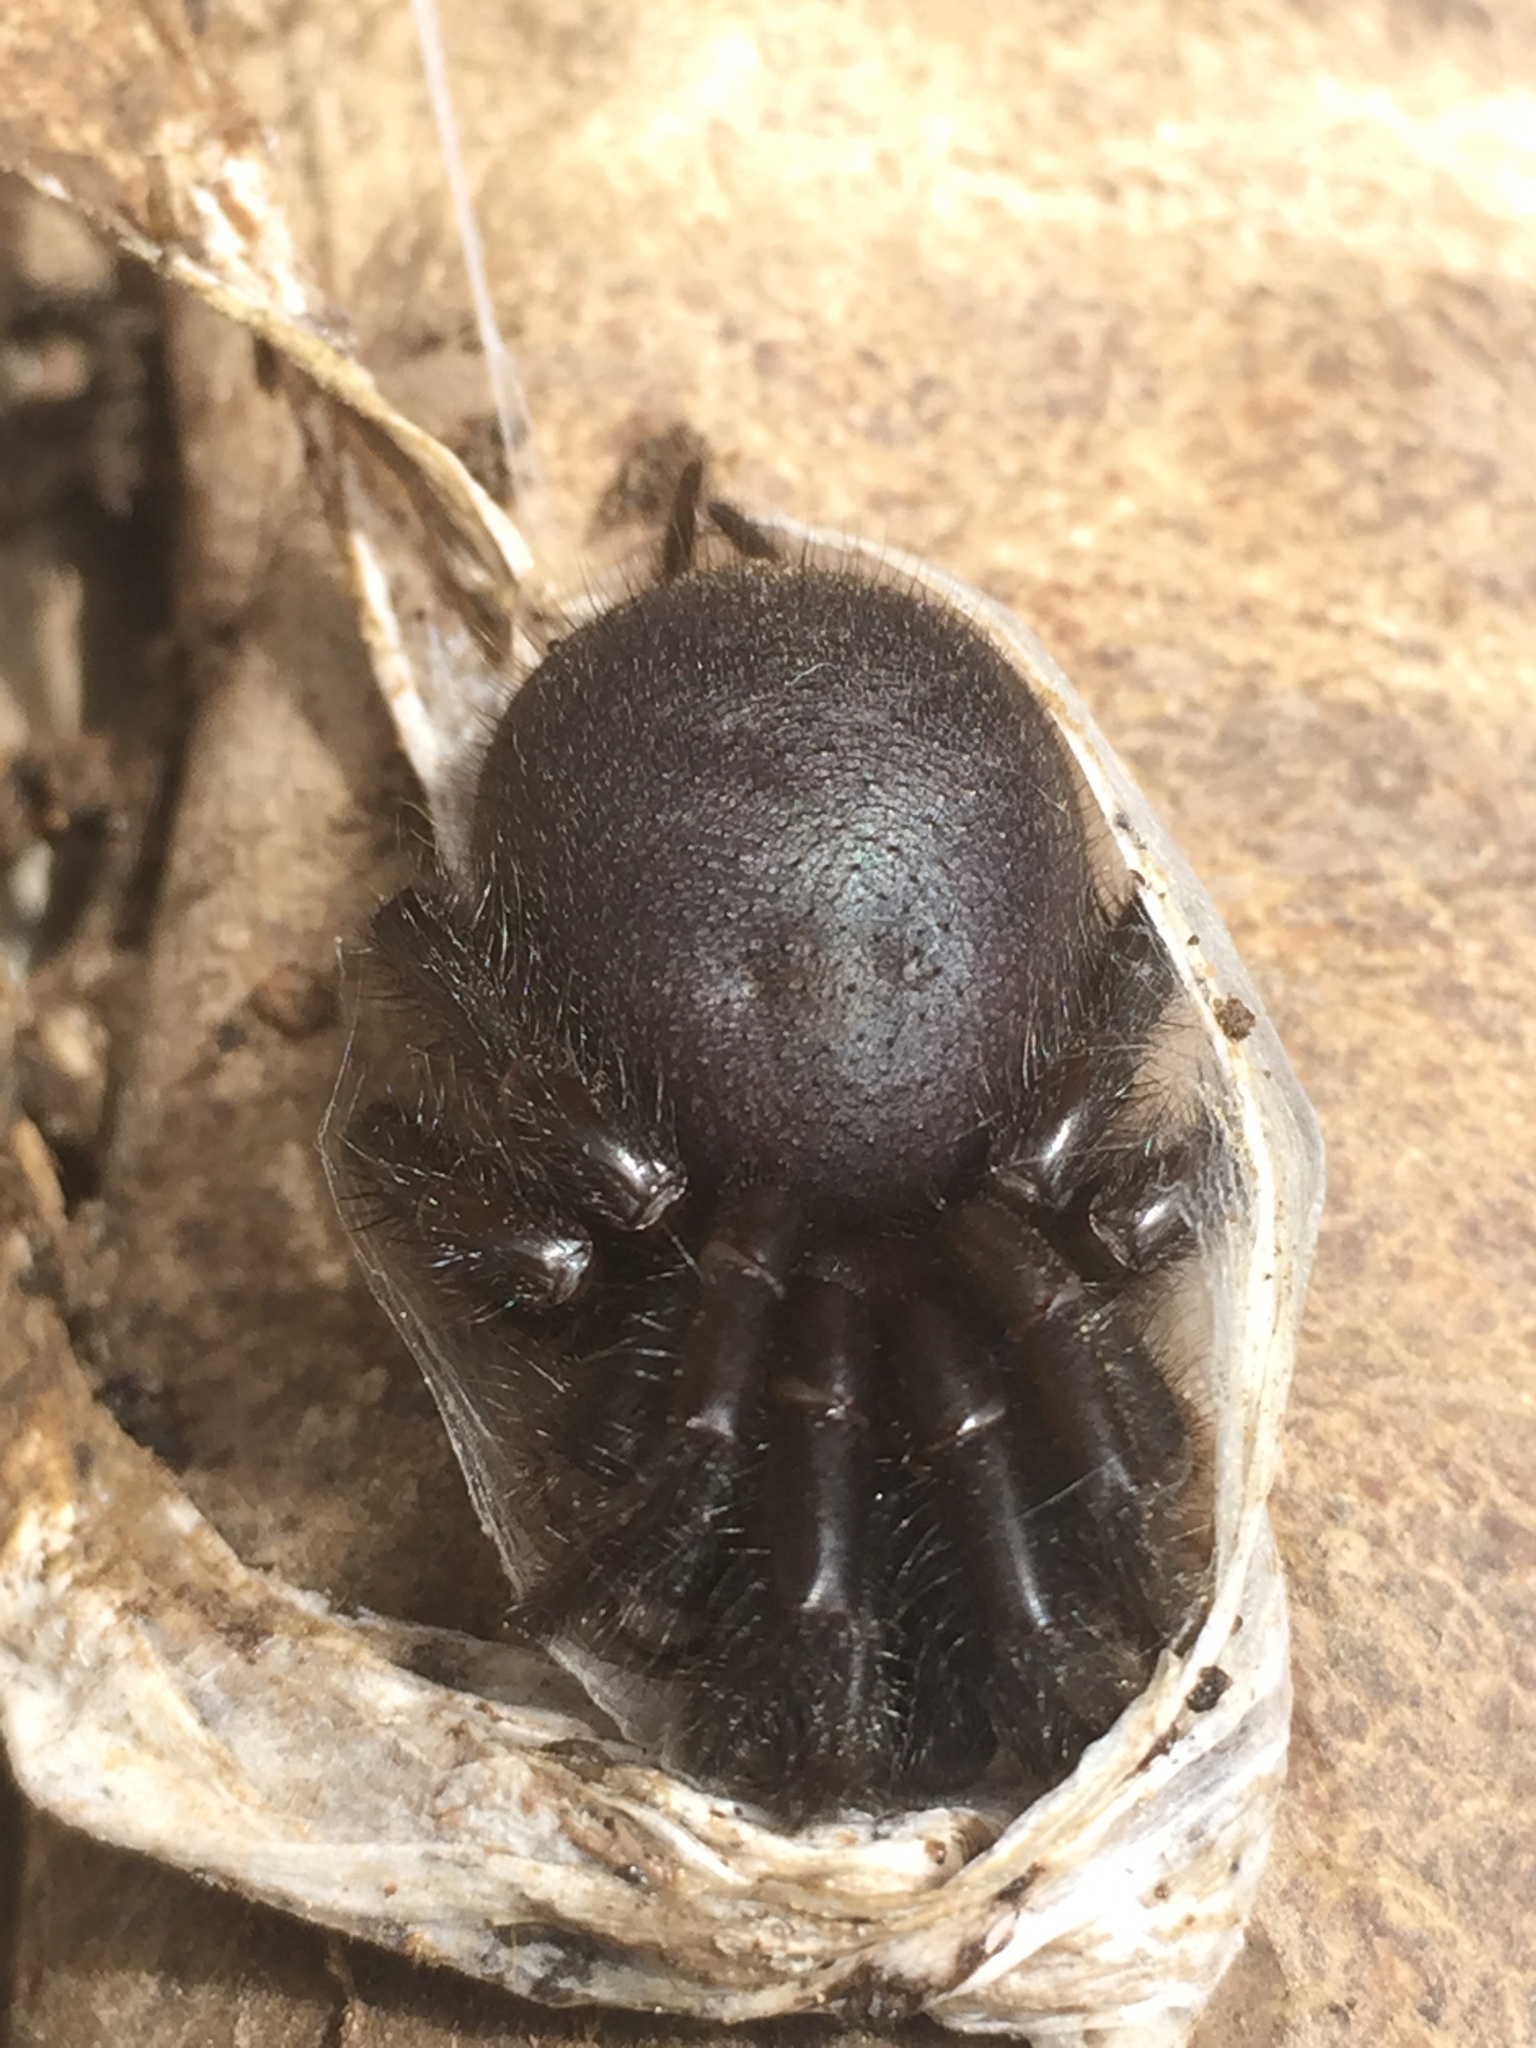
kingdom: Animalia
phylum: Arthropoda
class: Arachnida
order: Araneae
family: Porrhothelidae
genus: Porrhothele
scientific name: Porrhothele antipodiana
